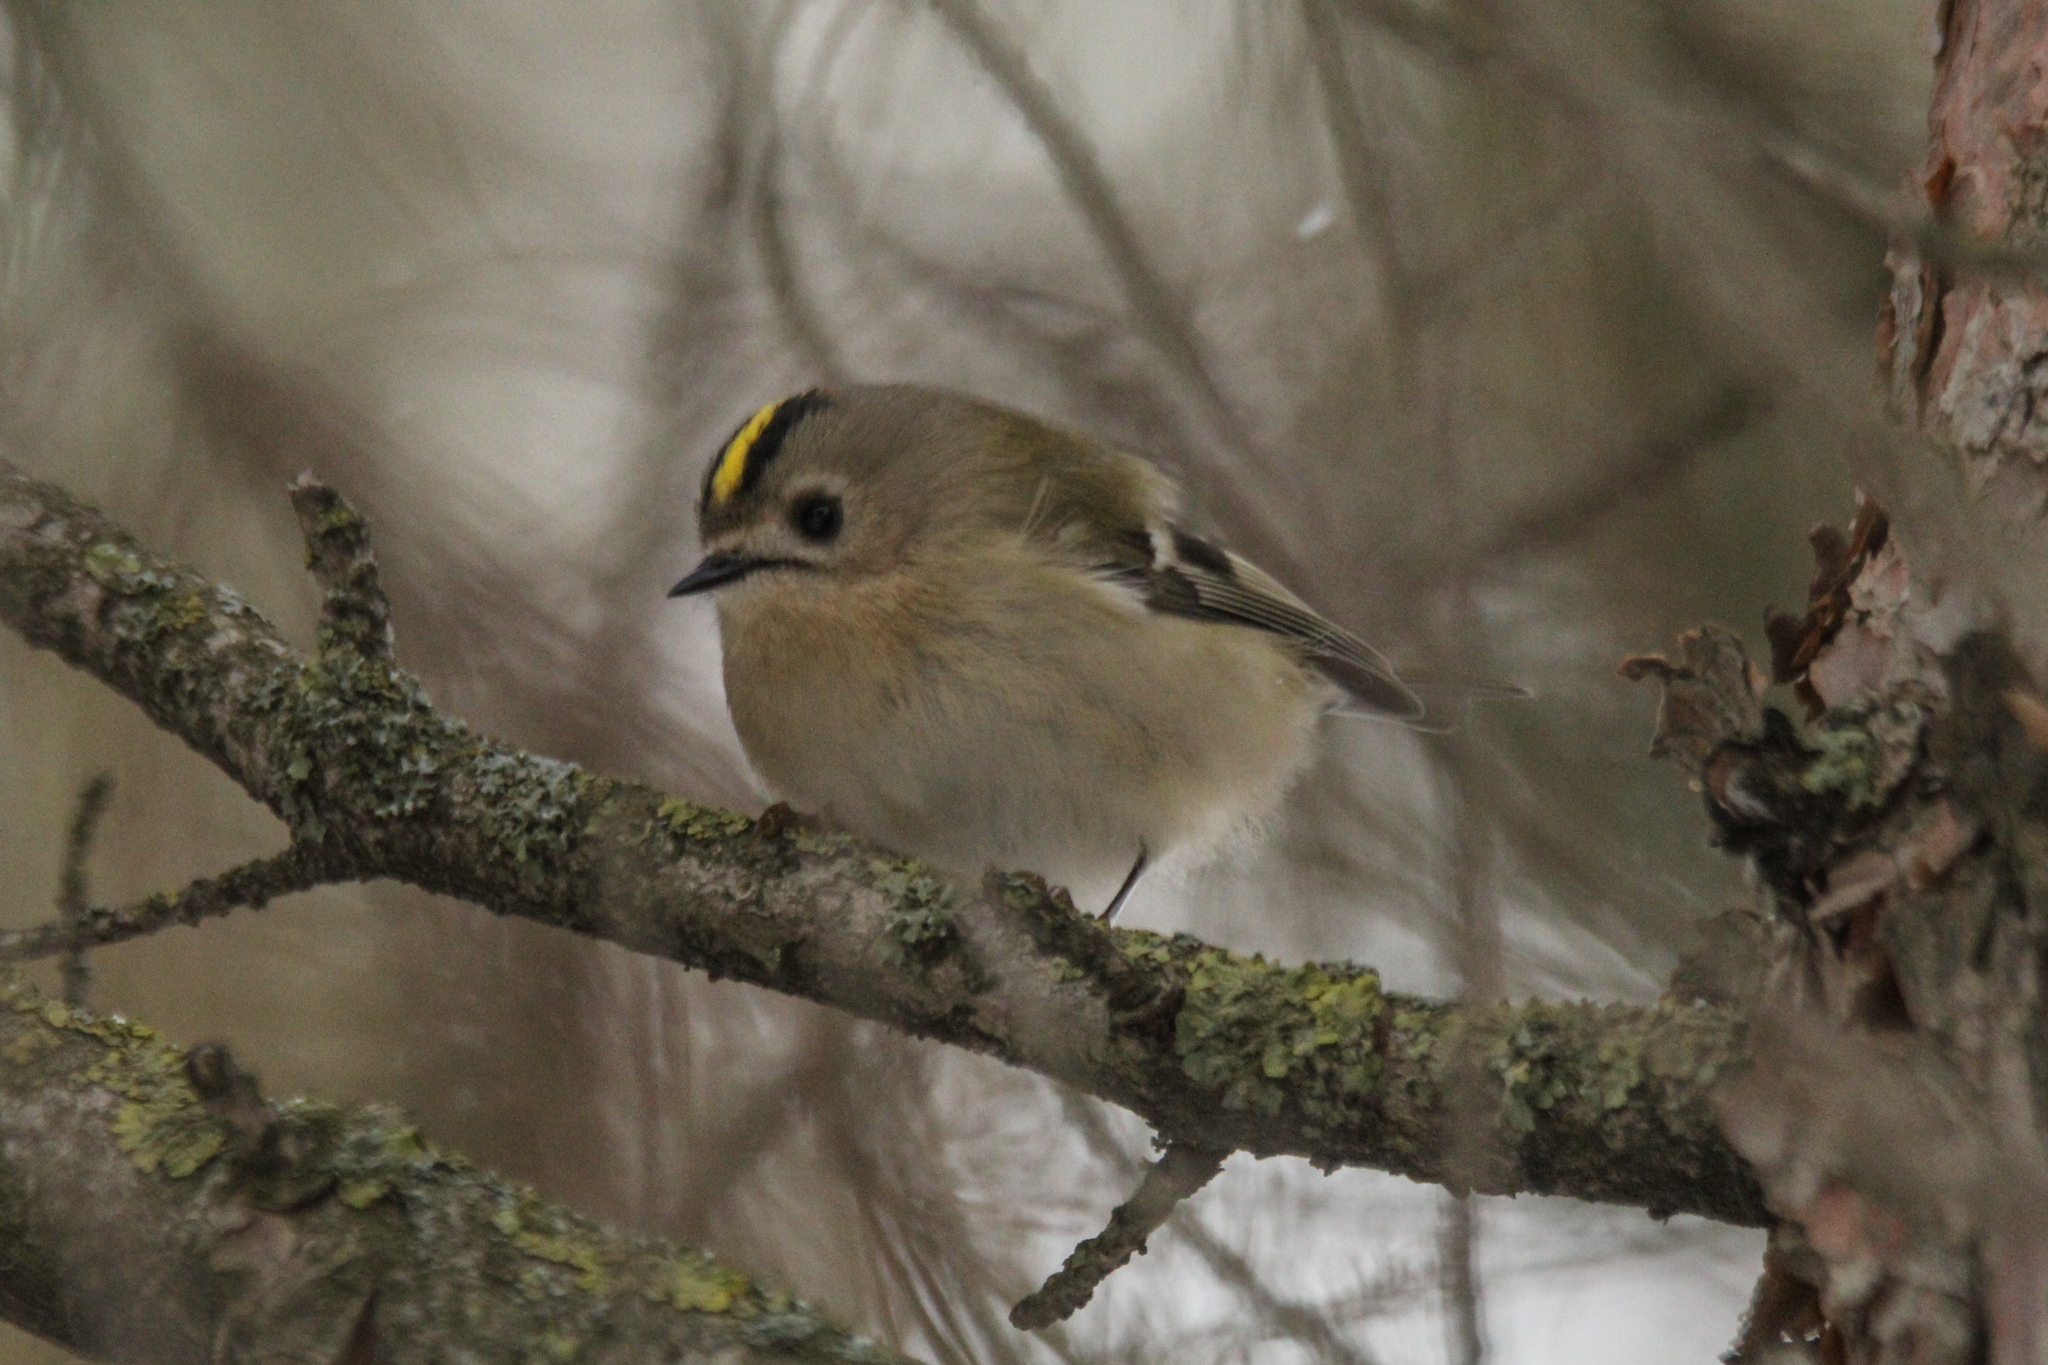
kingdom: Animalia
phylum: Chordata
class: Aves
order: Passeriformes
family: Regulidae
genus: Regulus
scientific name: Regulus regulus
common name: Goldcrest
